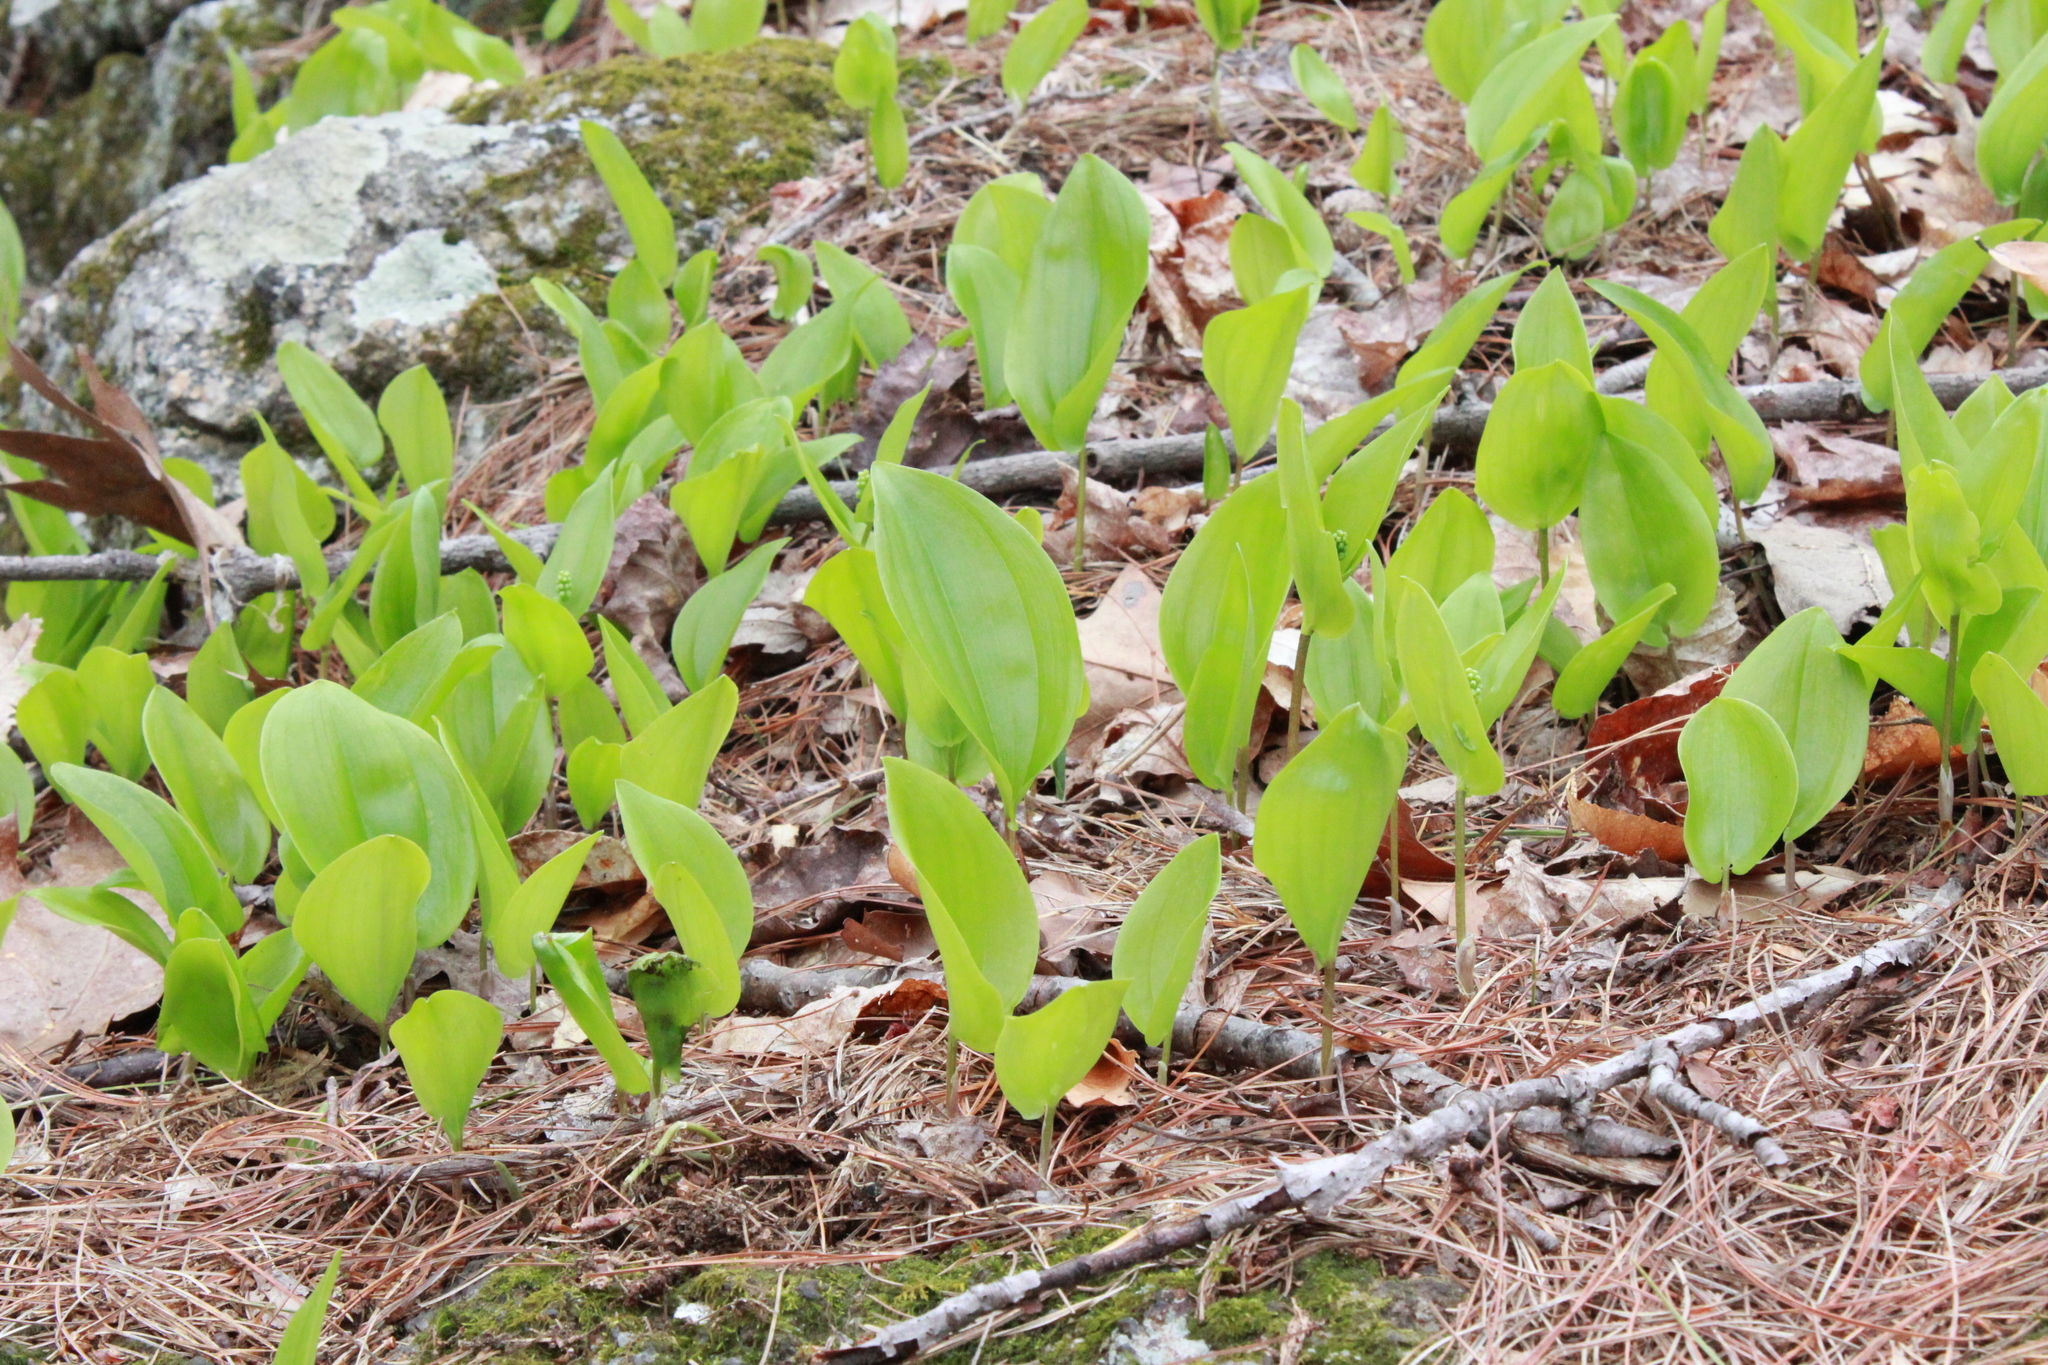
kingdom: Plantae
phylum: Tracheophyta
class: Liliopsida
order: Asparagales
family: Asparagaceae
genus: Maianthemum
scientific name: Maianthemum canadense
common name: False lily-of-the-valley
